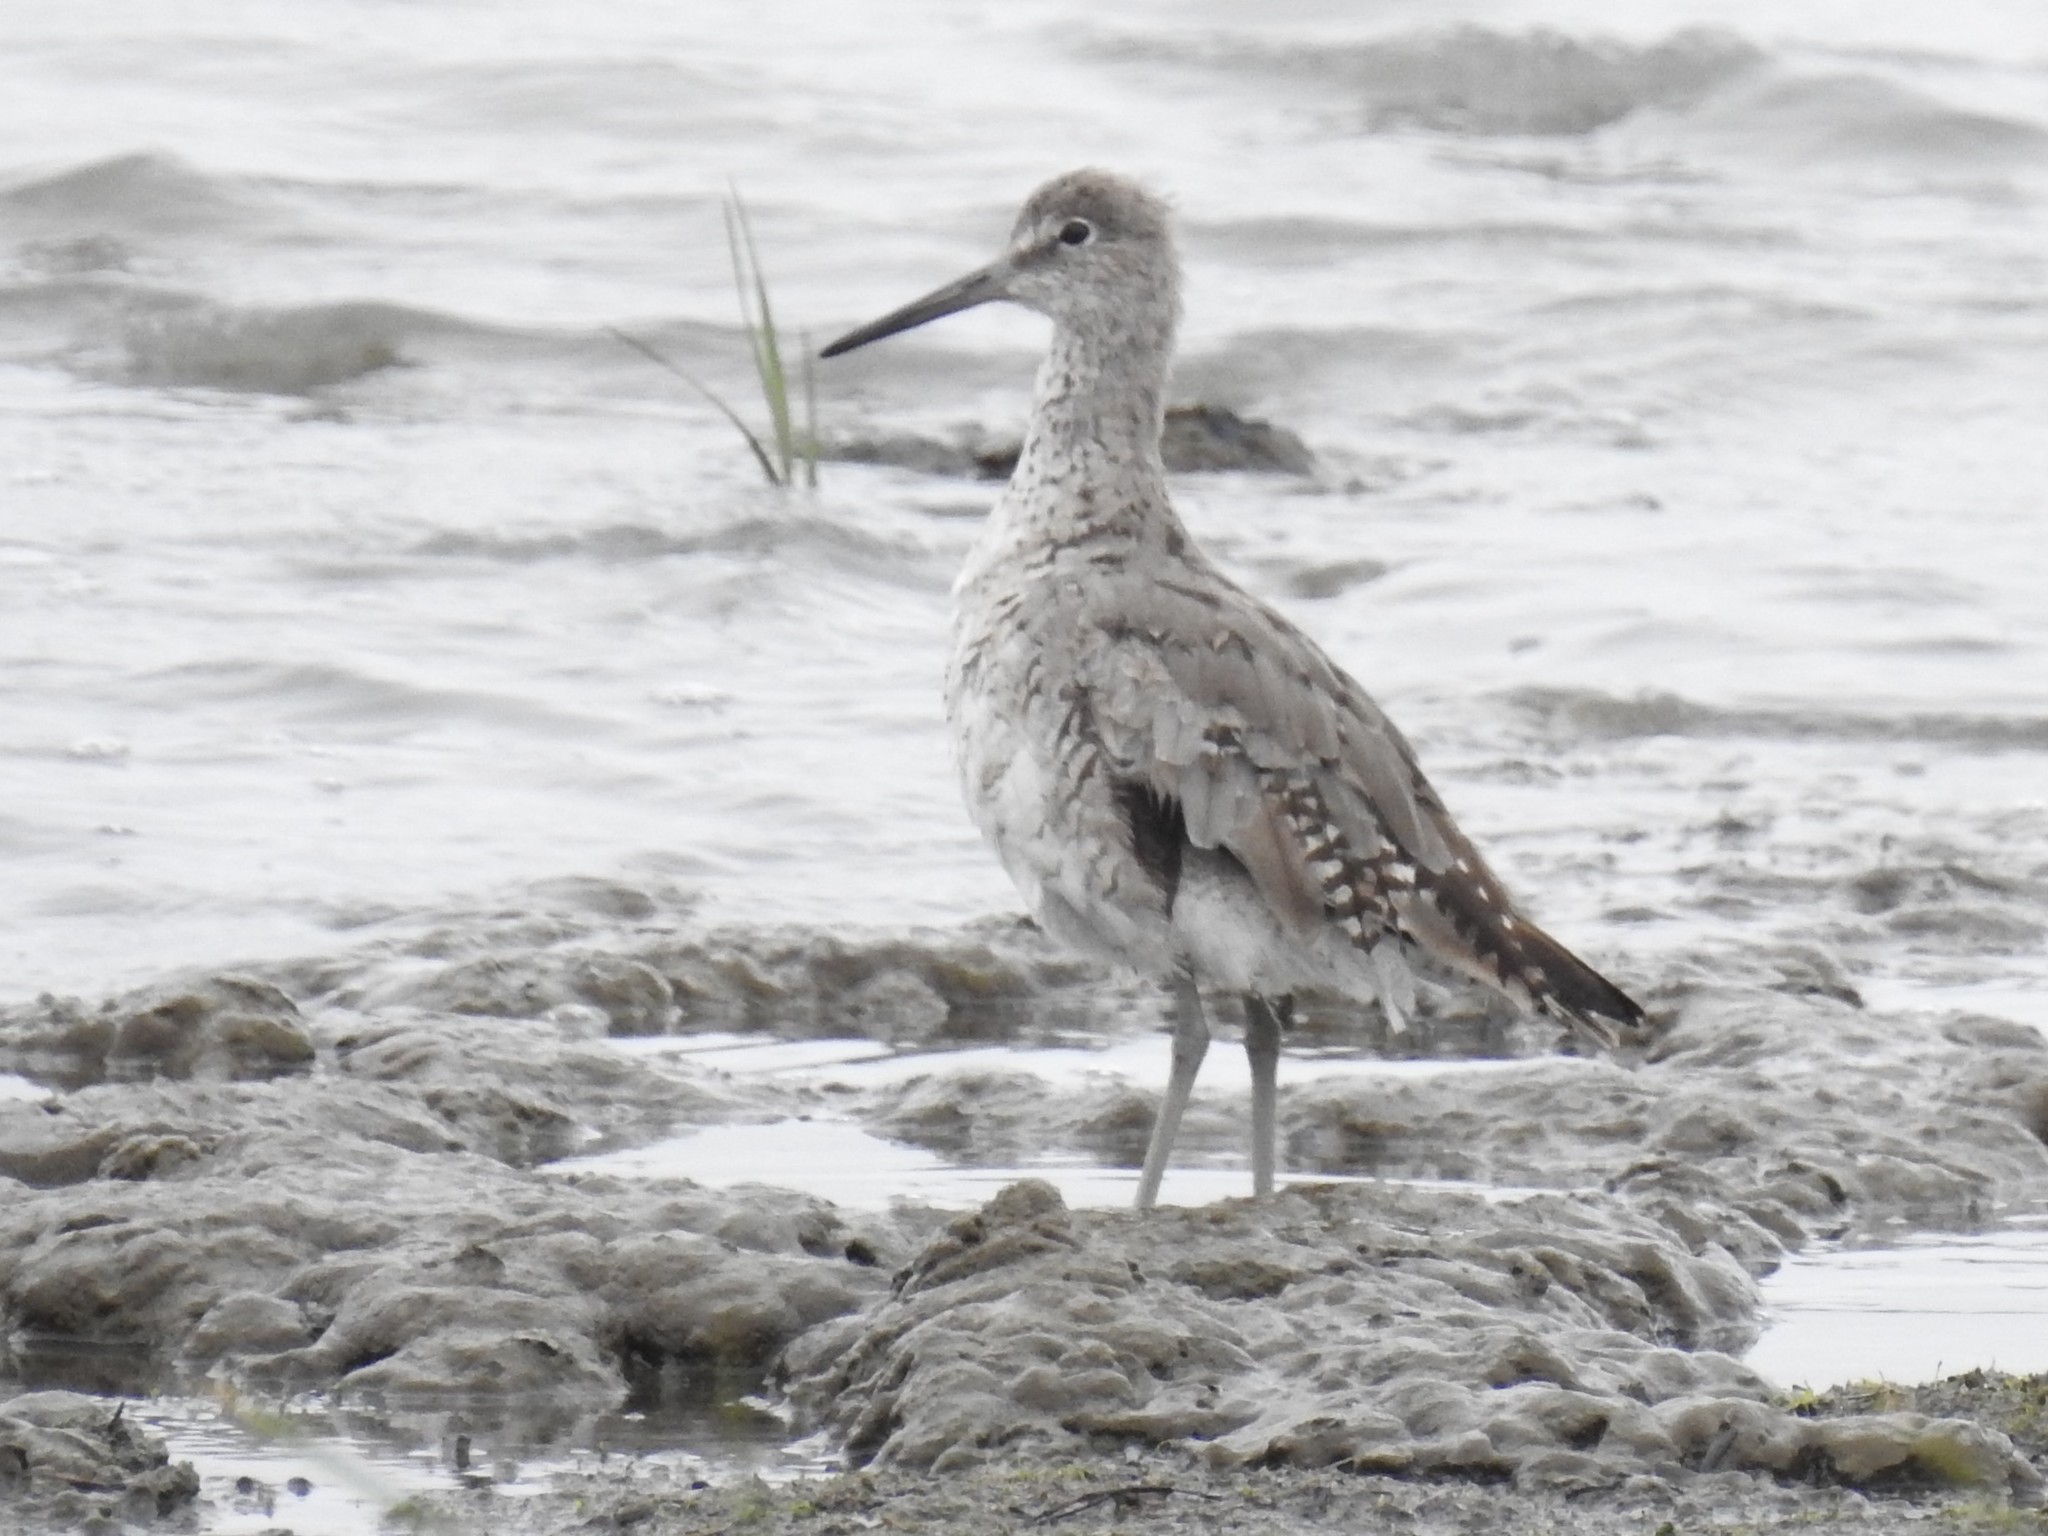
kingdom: Animalia
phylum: Chordata
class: Aves
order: Charadriiformes
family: Scolopacidae
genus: Tringa
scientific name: Tringa semipalmata
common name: Willet
